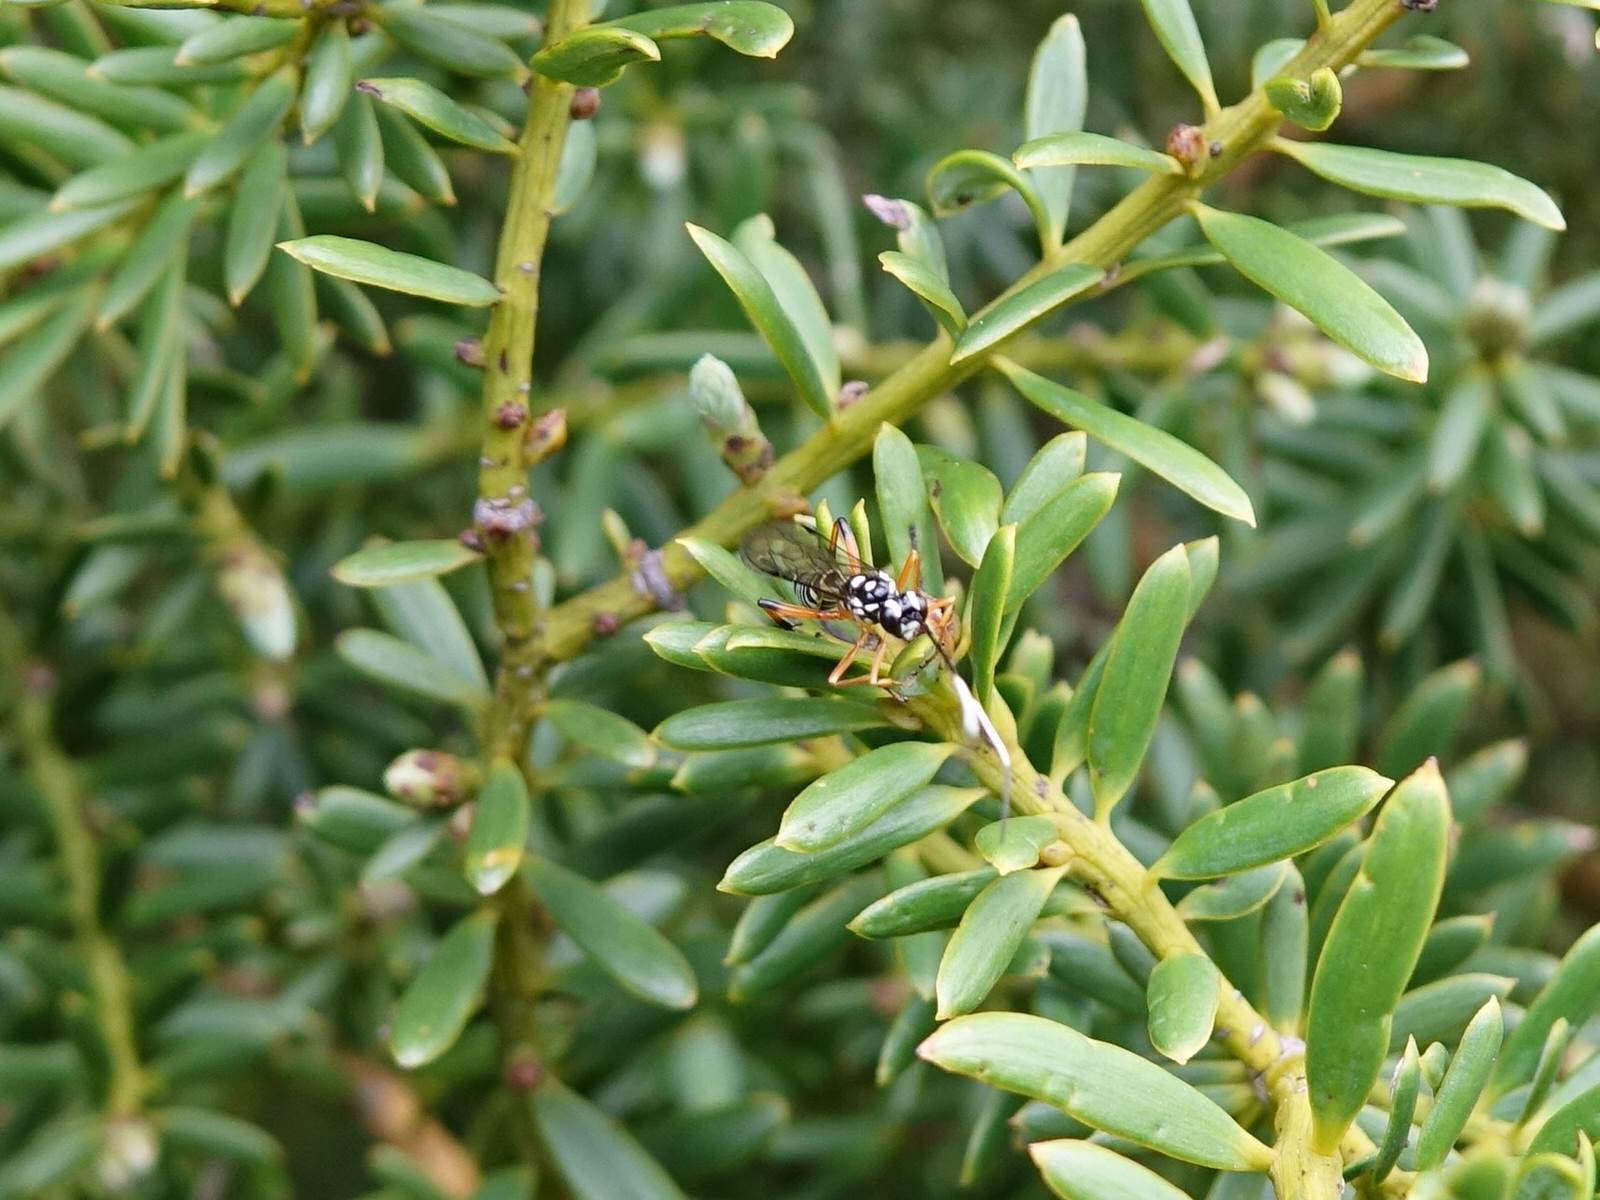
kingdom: Animalia
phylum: Arthropoda
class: Insecta
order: Hymenoptera
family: Ichneumonidae
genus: Xanthocryptus
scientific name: Xanthocryptus novozealandicus
